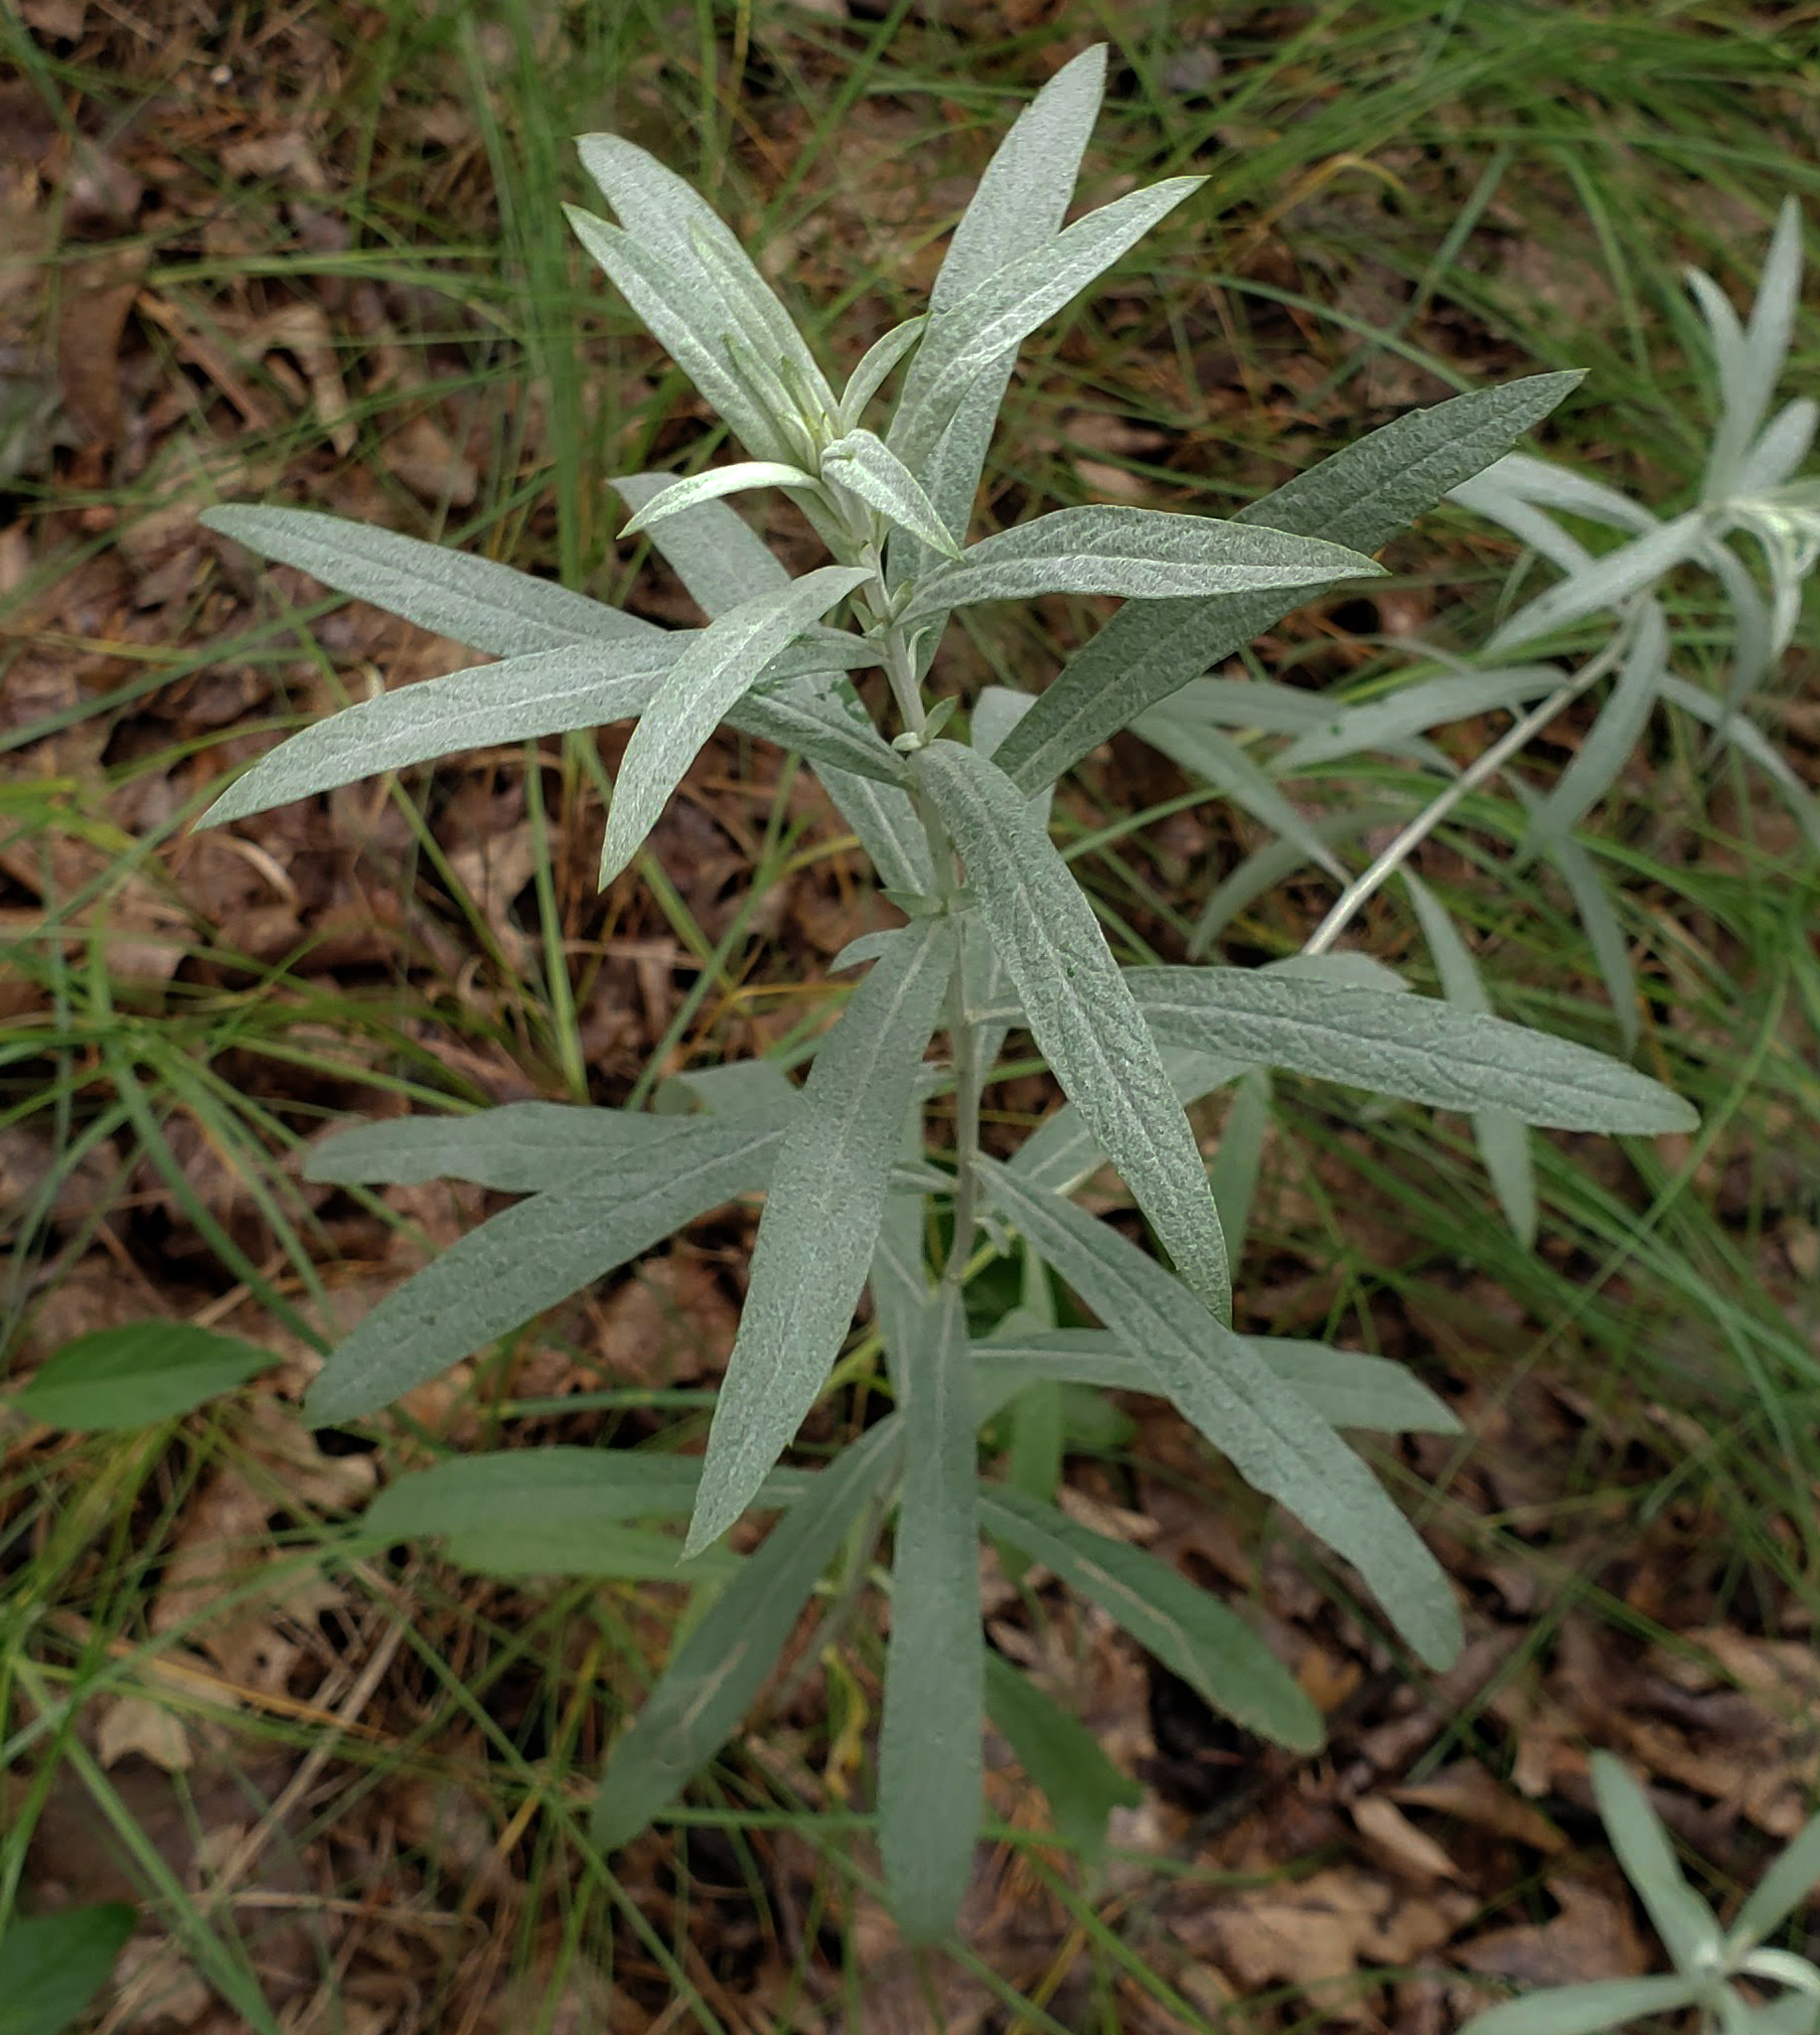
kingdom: Plantae
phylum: Tracheophyta
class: Magnoliopsida
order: Asterales
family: Asteraceae
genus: Artemisia
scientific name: Artemisia ludoviciana
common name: Western mugwort
